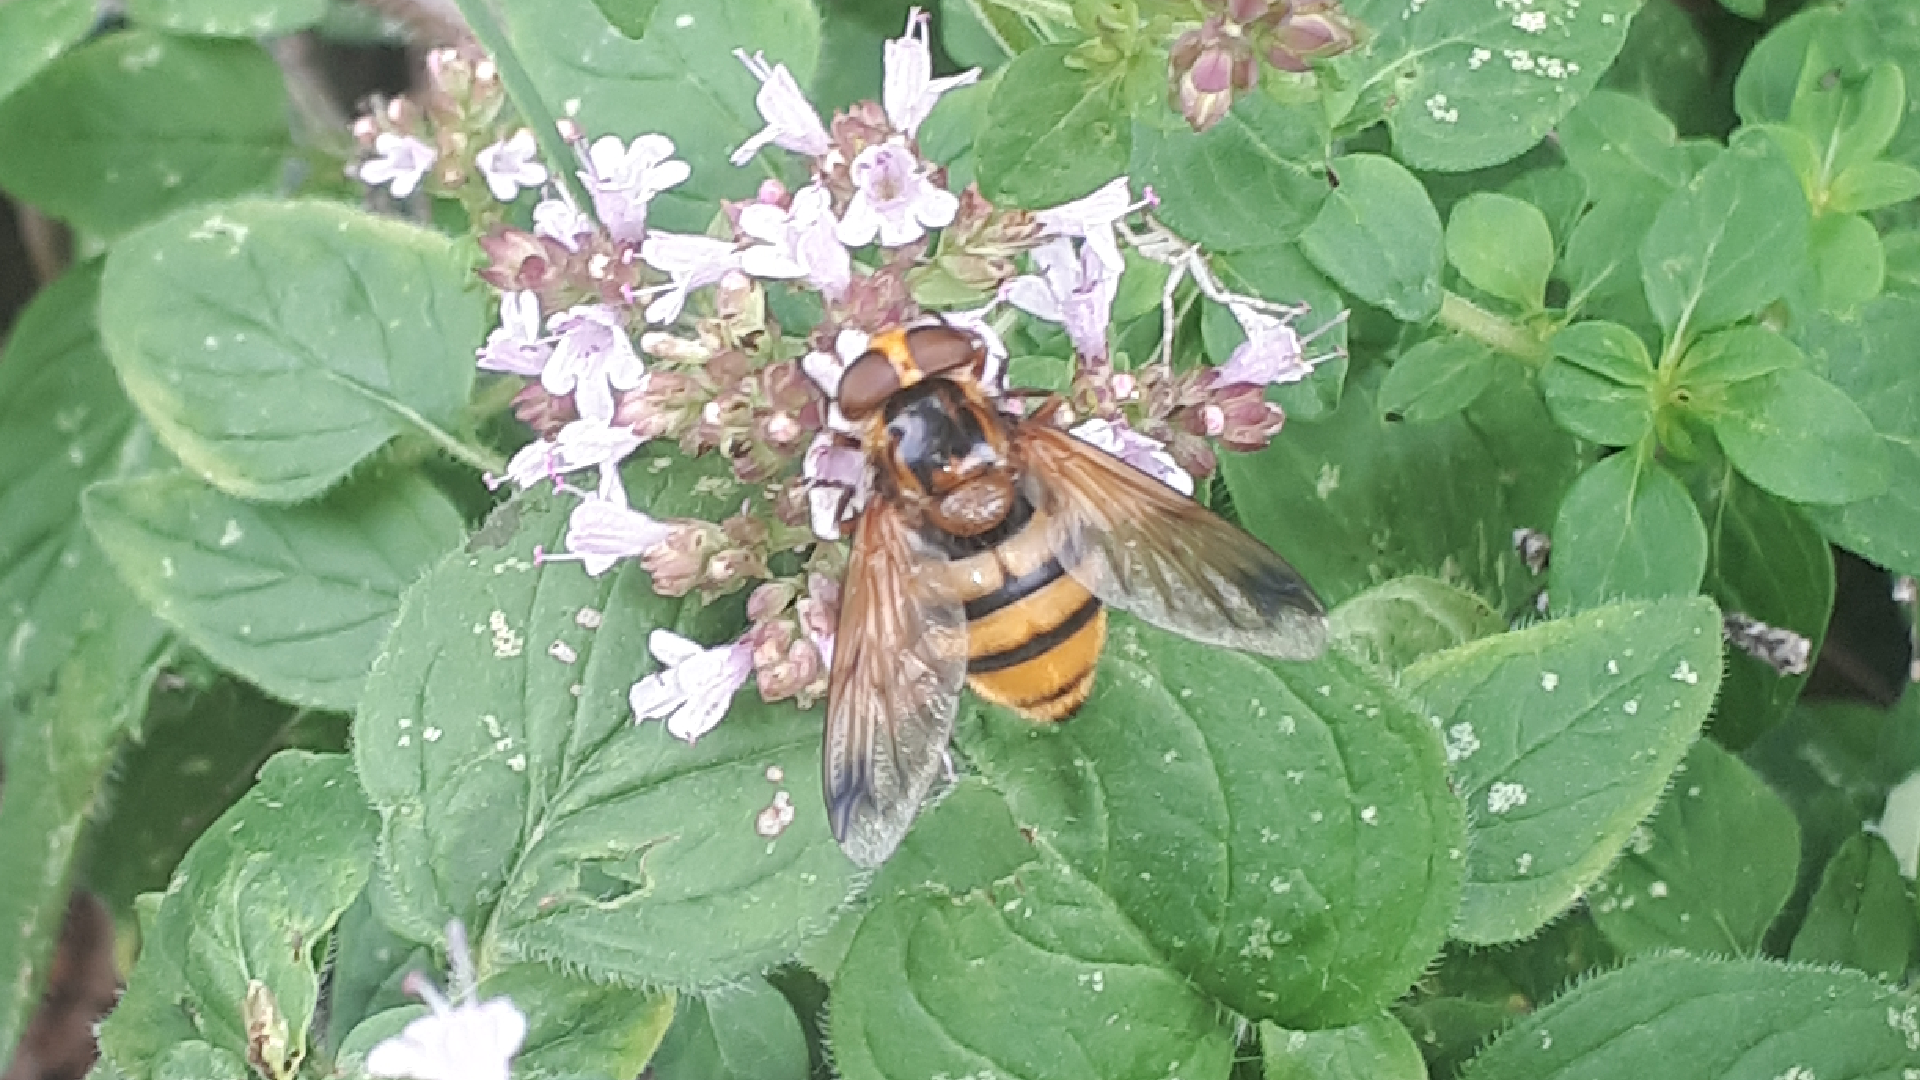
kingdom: Animalia
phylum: Arthropoda
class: Insecta
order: Diptera
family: Syrphidae
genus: Volucella
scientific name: Volucella inanis
